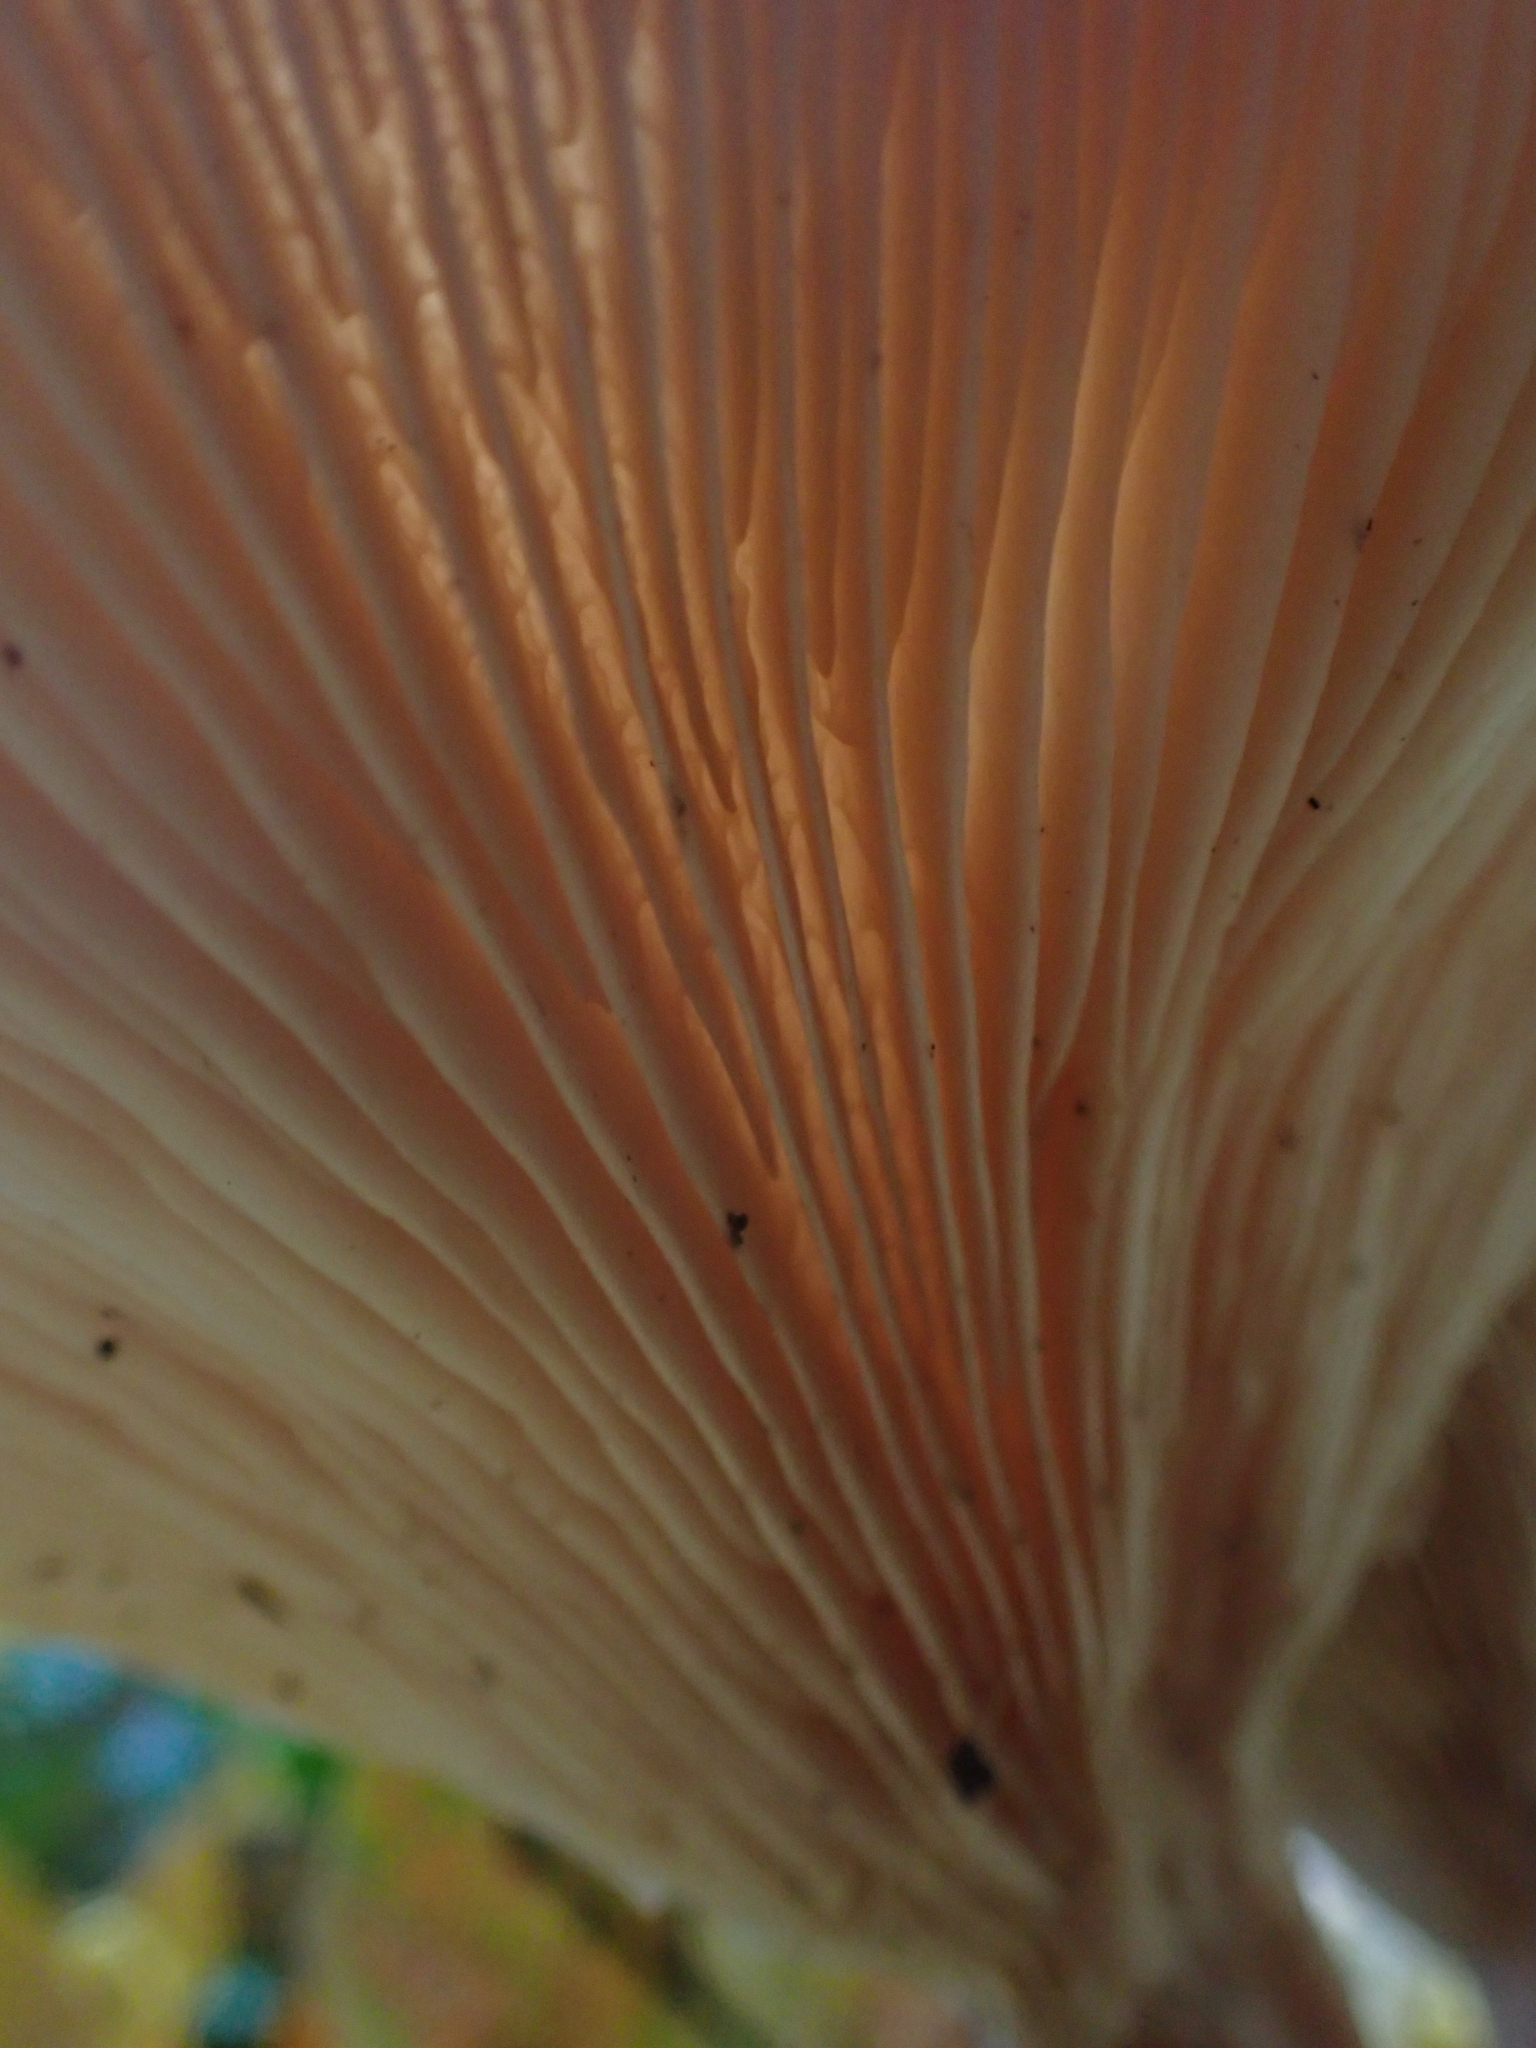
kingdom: Fungi
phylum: Basidiomycota
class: Agaricomycetes
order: Agaricales
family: Tricholomataceae
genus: Clitocybe
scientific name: Clitocybe nebularis
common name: Clouded agaric
